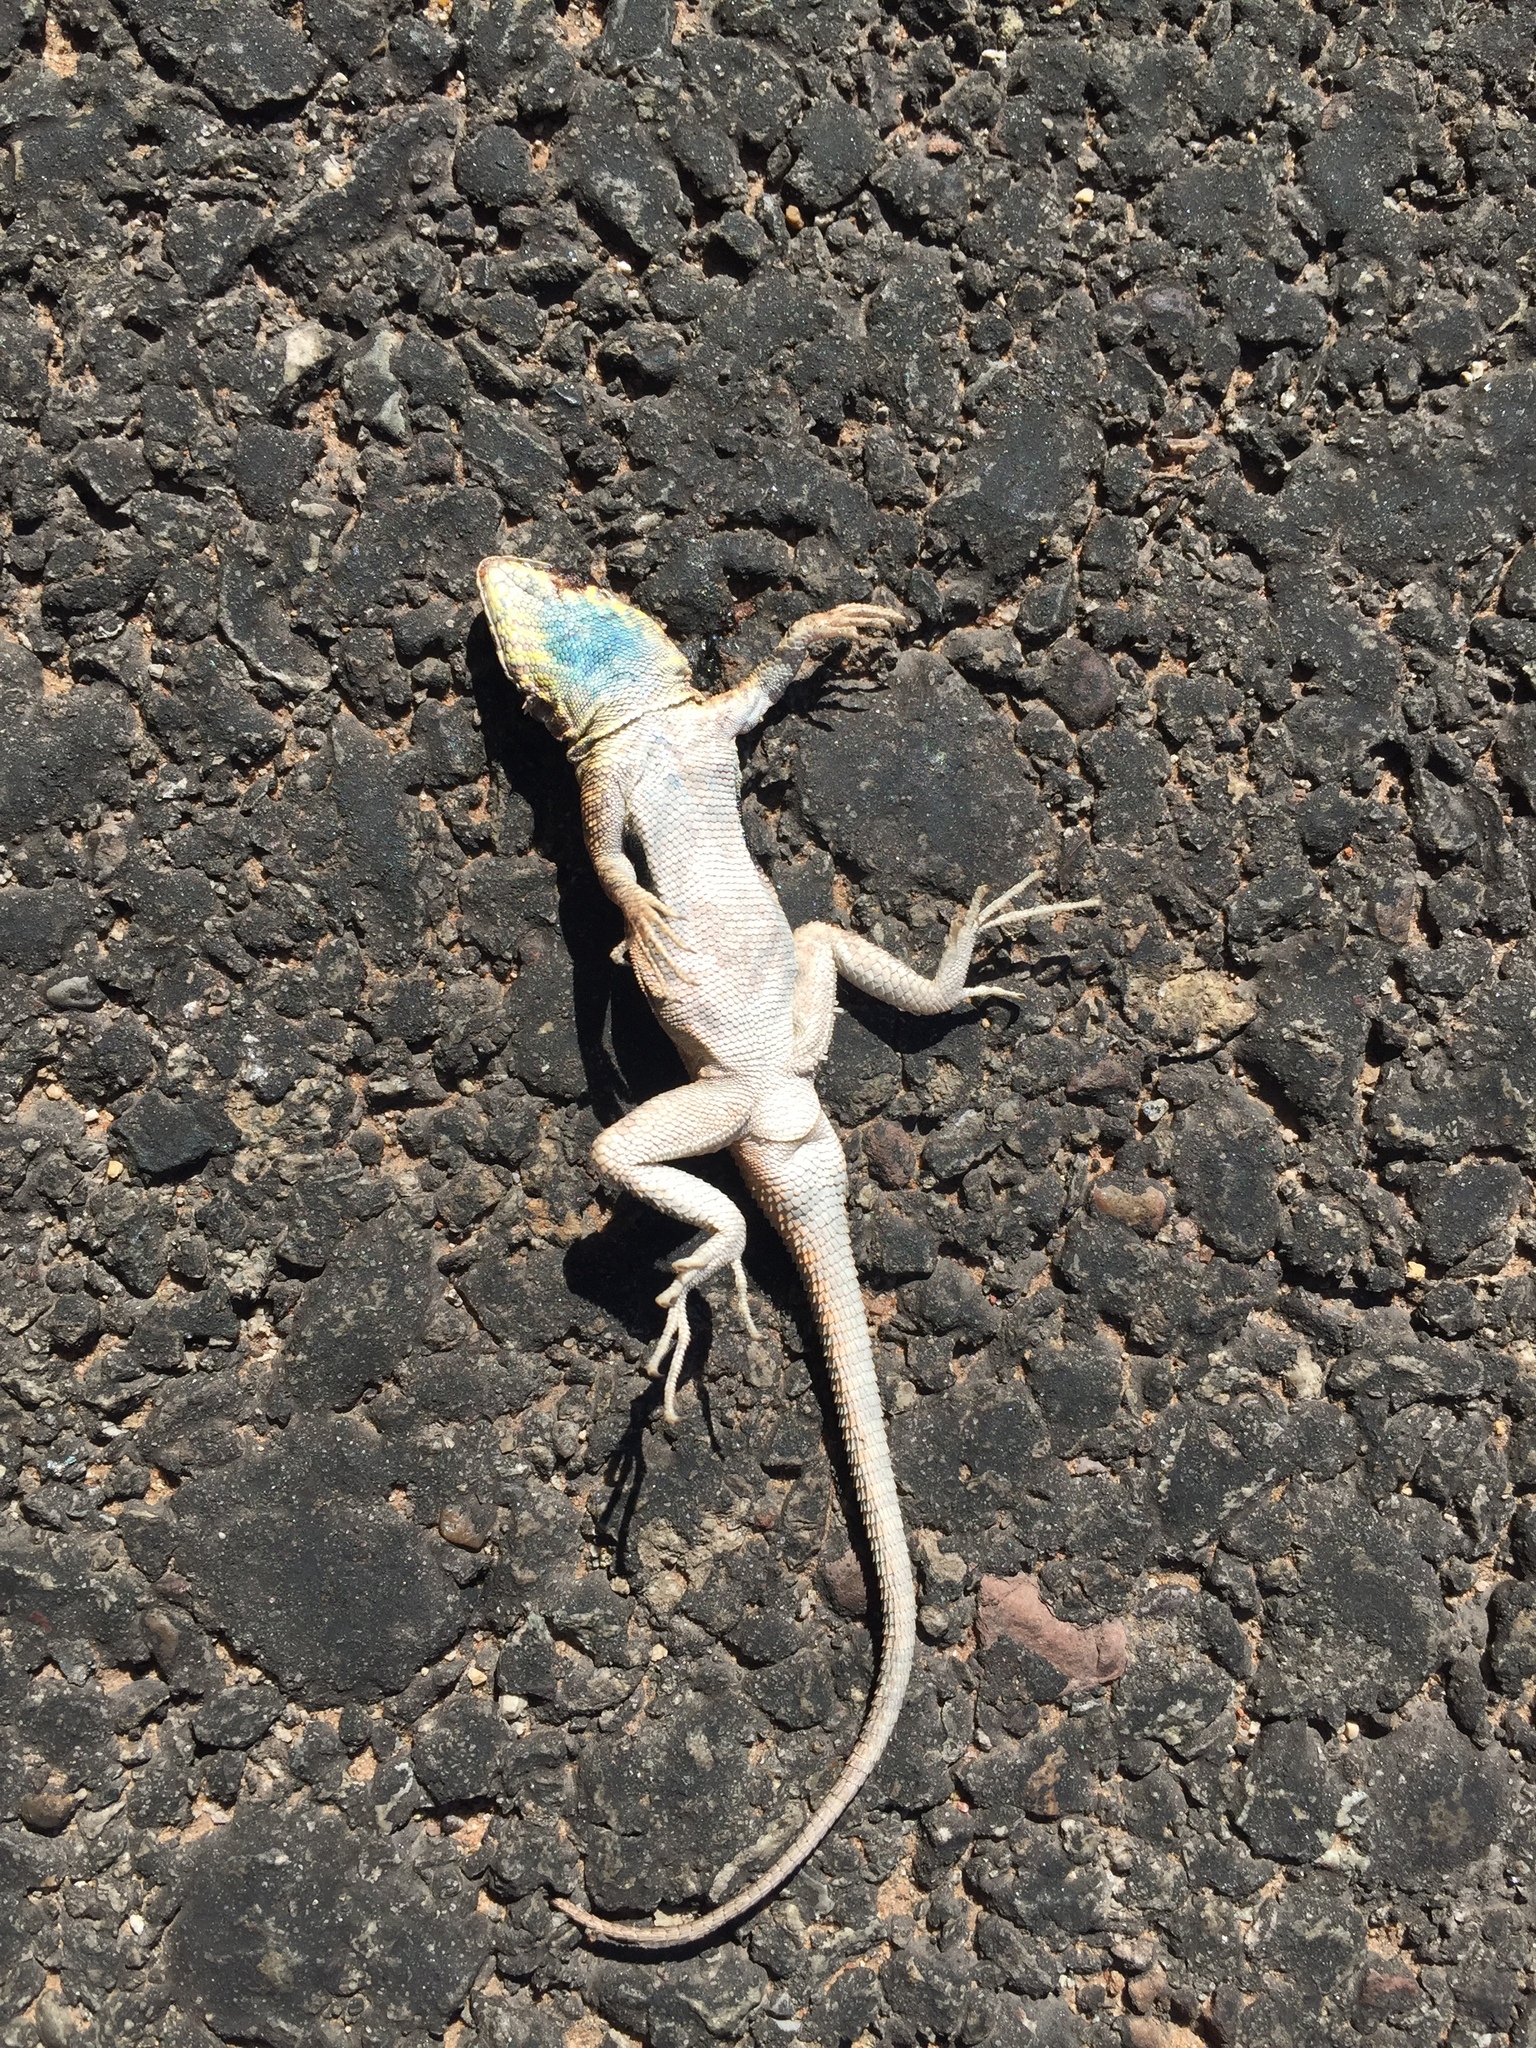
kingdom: Animalia
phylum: Chordata
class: Squamata
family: Phrynosomatidae
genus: Uta
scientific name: Uta stansburiana
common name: Side-blotched lizard
